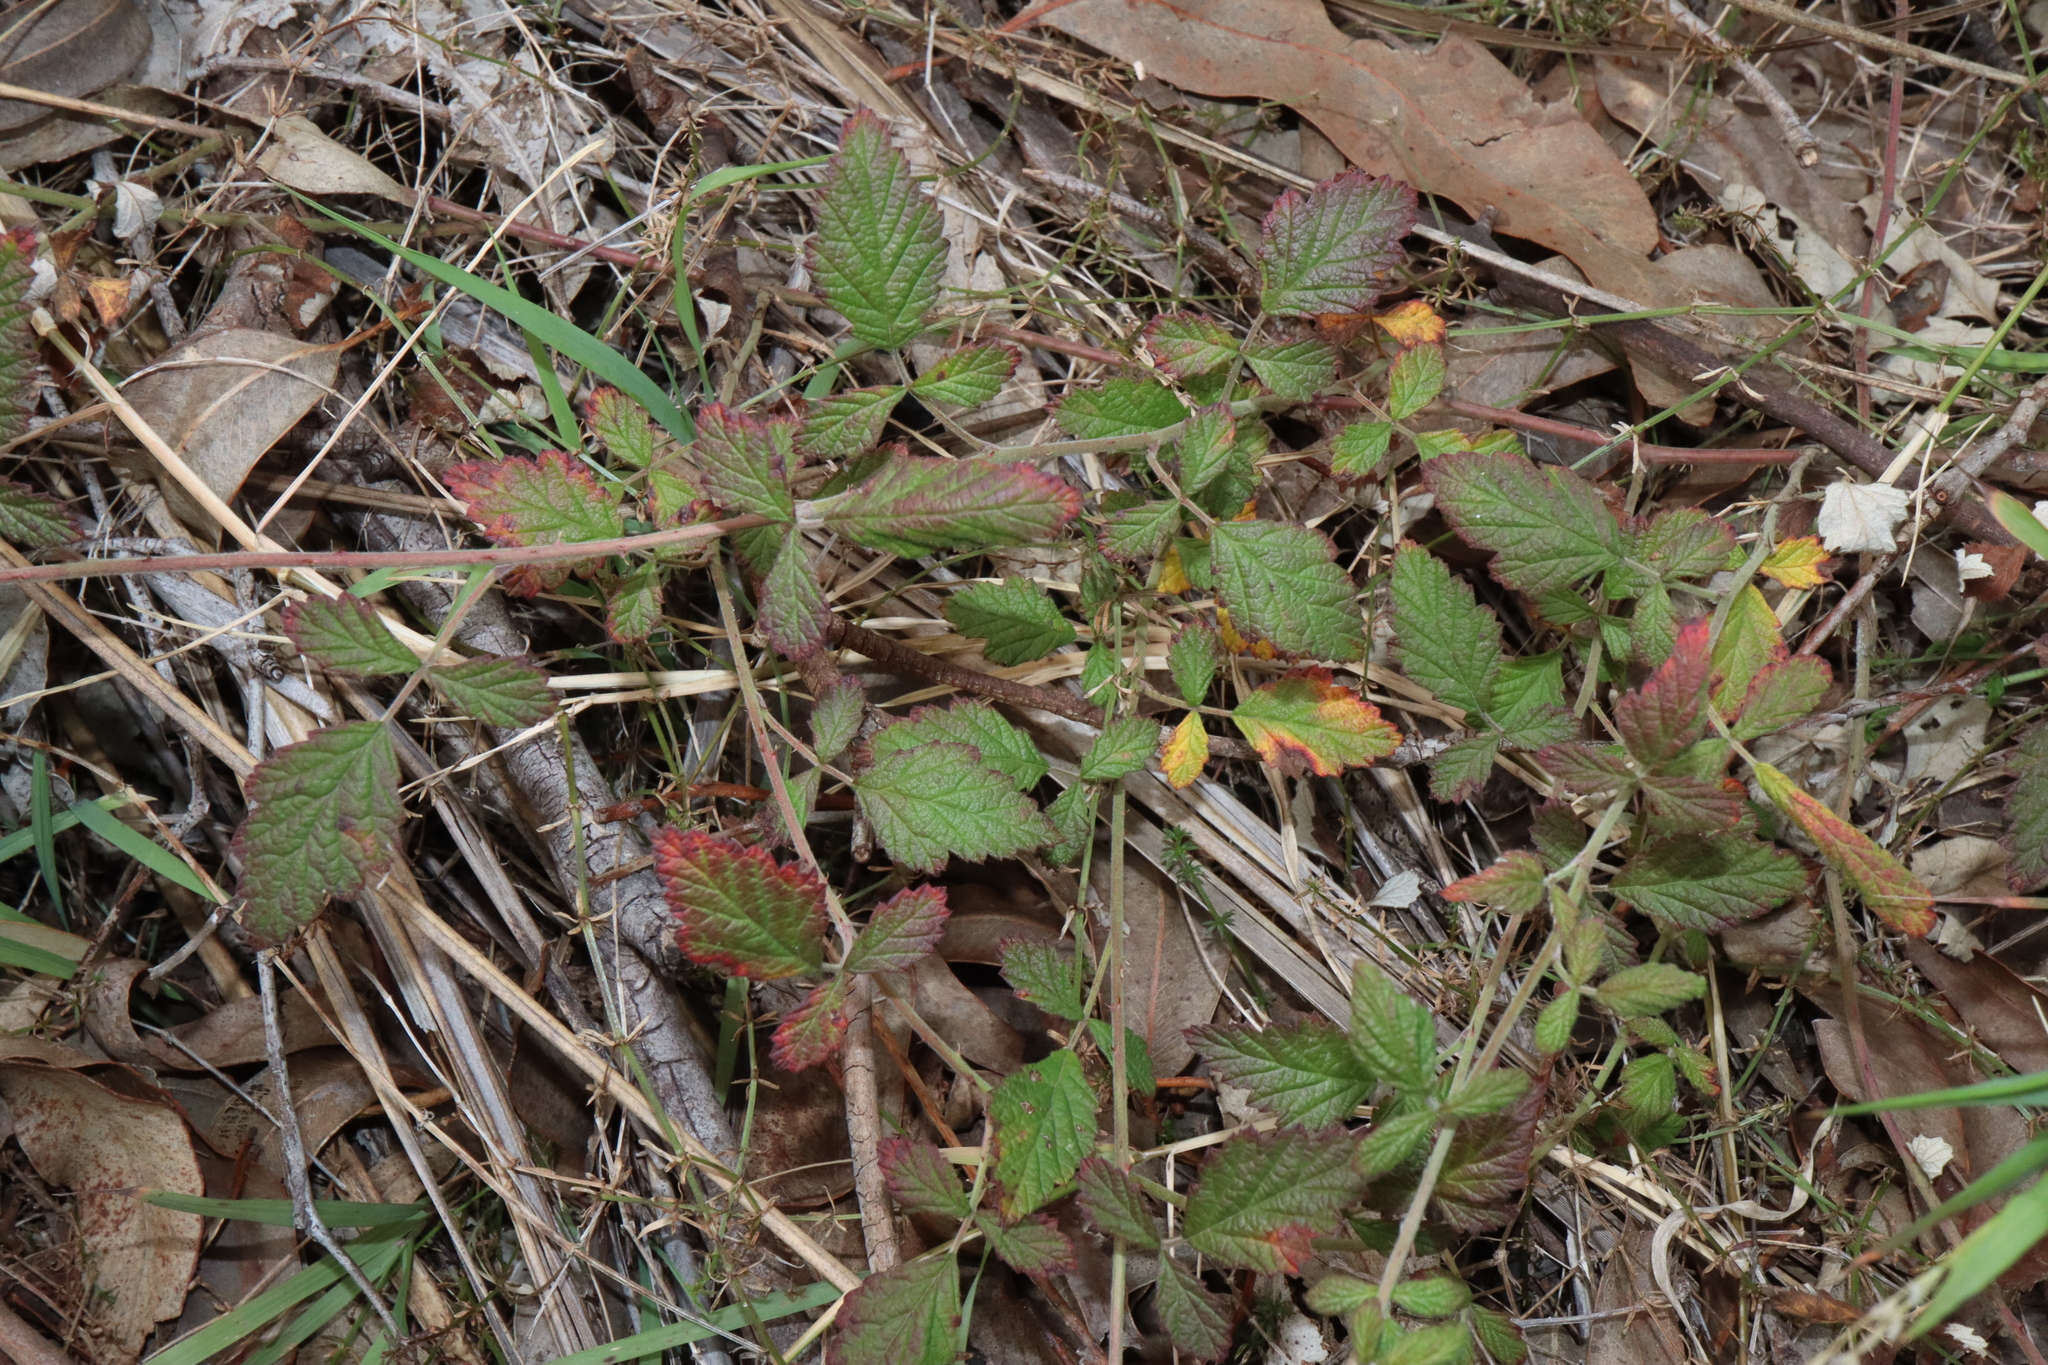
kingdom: Plantae
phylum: Tracheophyta
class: Magnoliopsida
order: Rosales
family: Rosaceae
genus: Rubus
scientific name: Rubus parvifolius
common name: Threeleaf blackberry
